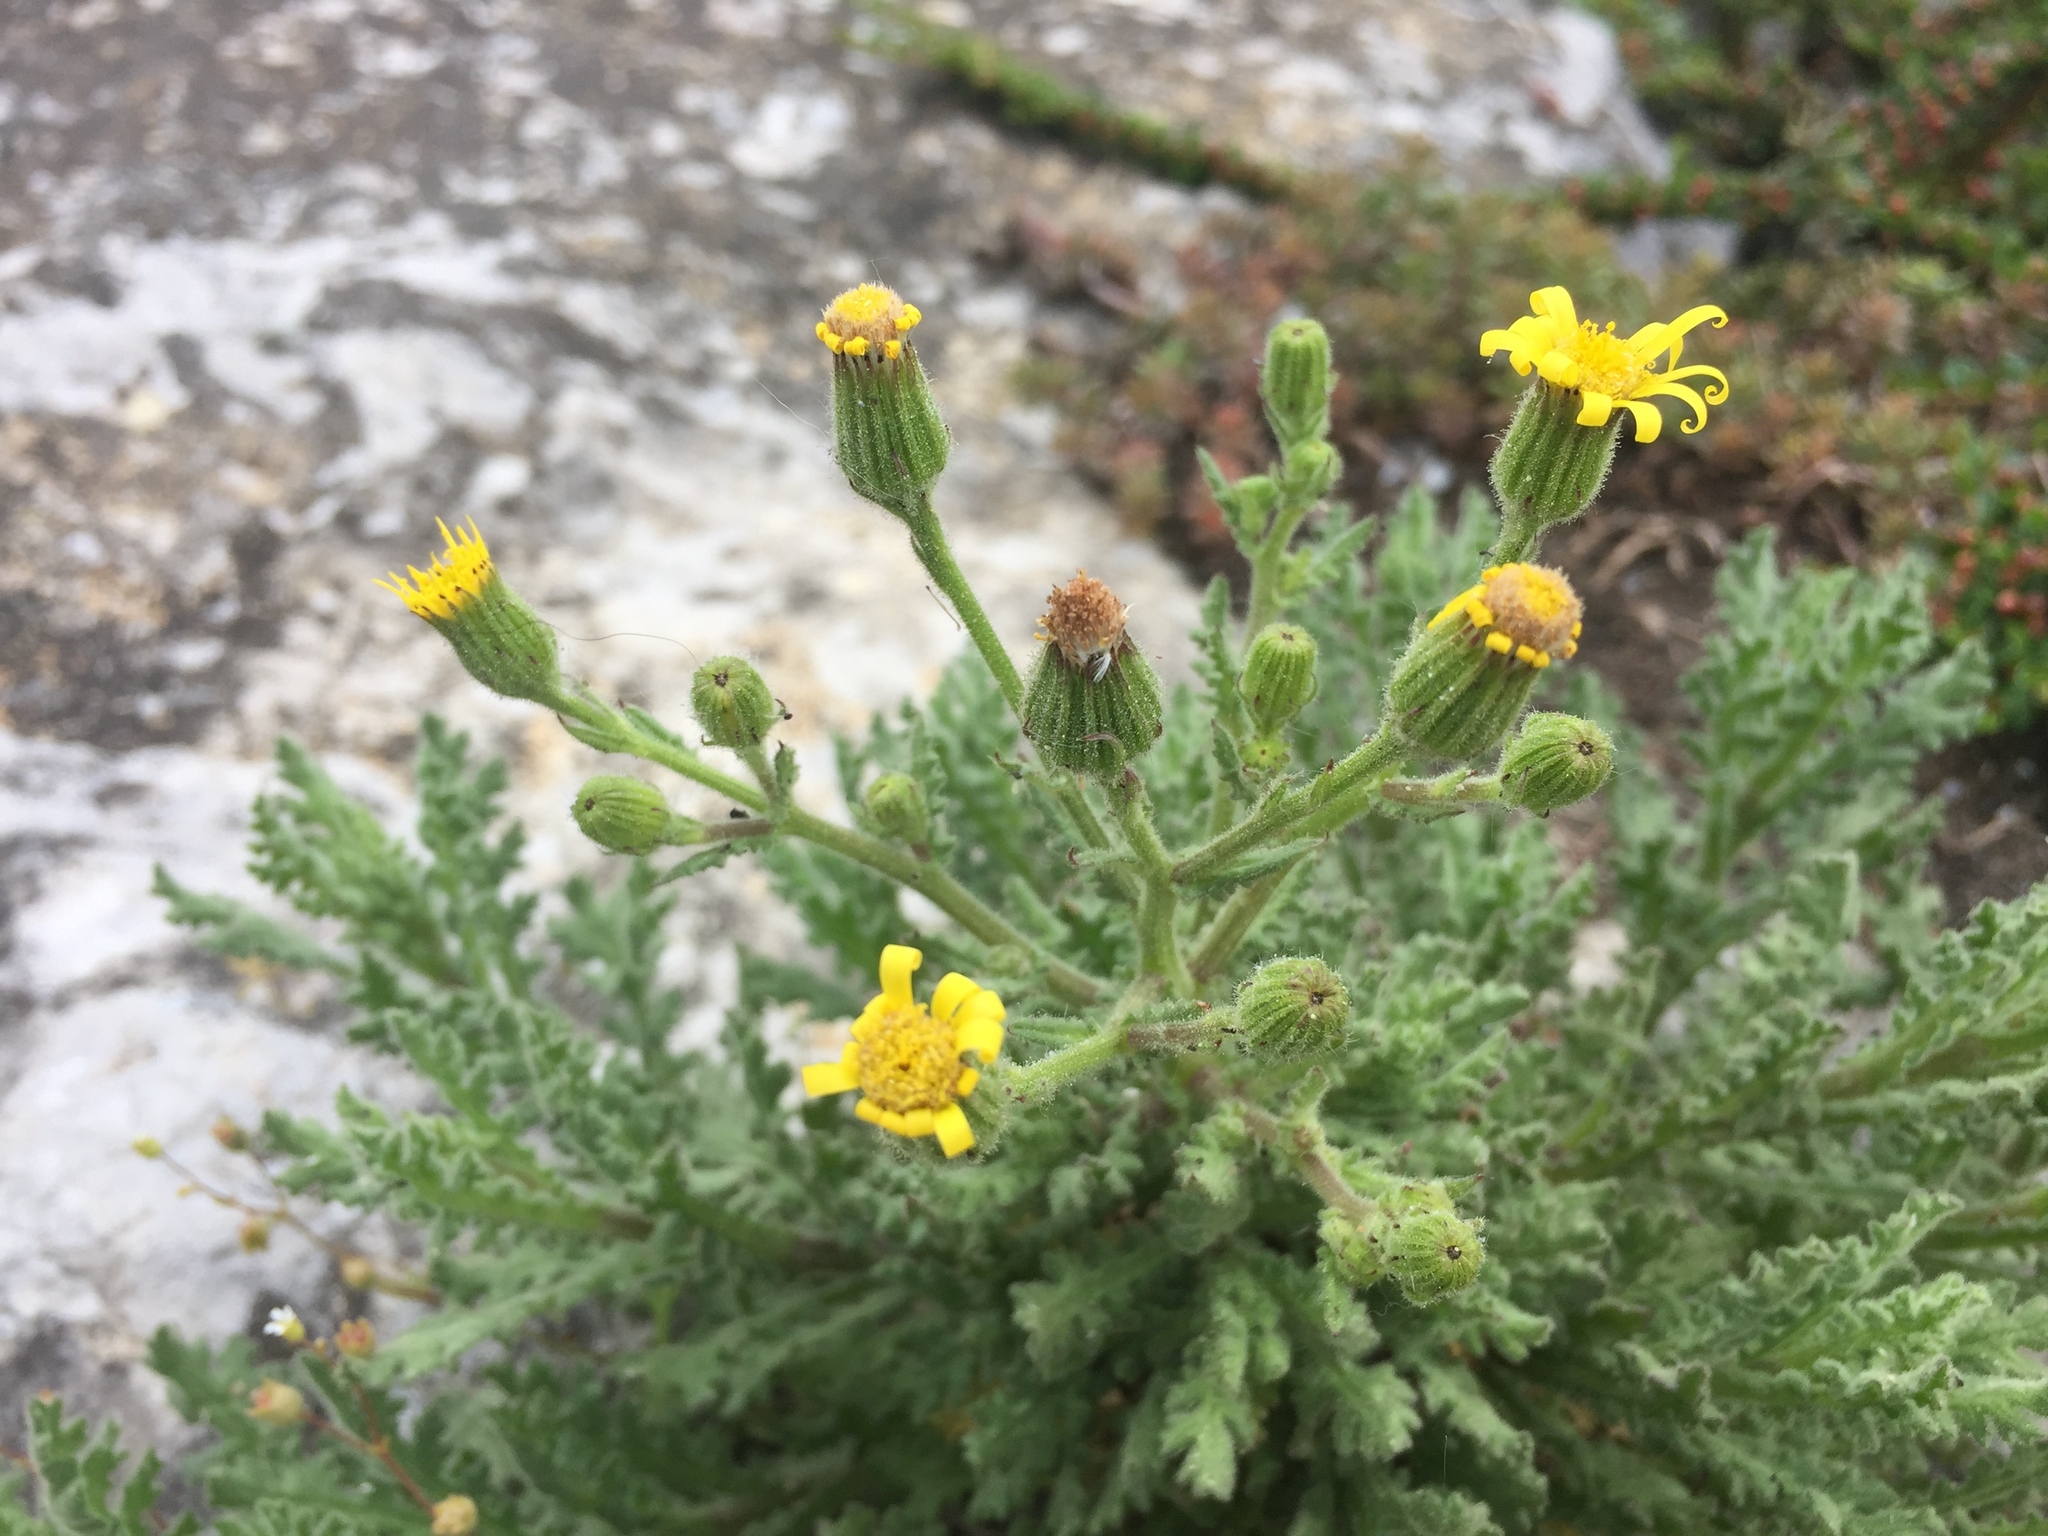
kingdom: Plantae
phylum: Tracheophyta
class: Magnoliopsida
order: Asterales
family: Asteraceae
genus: Senecio
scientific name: Senecio viscosus
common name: Sticky groundsel
